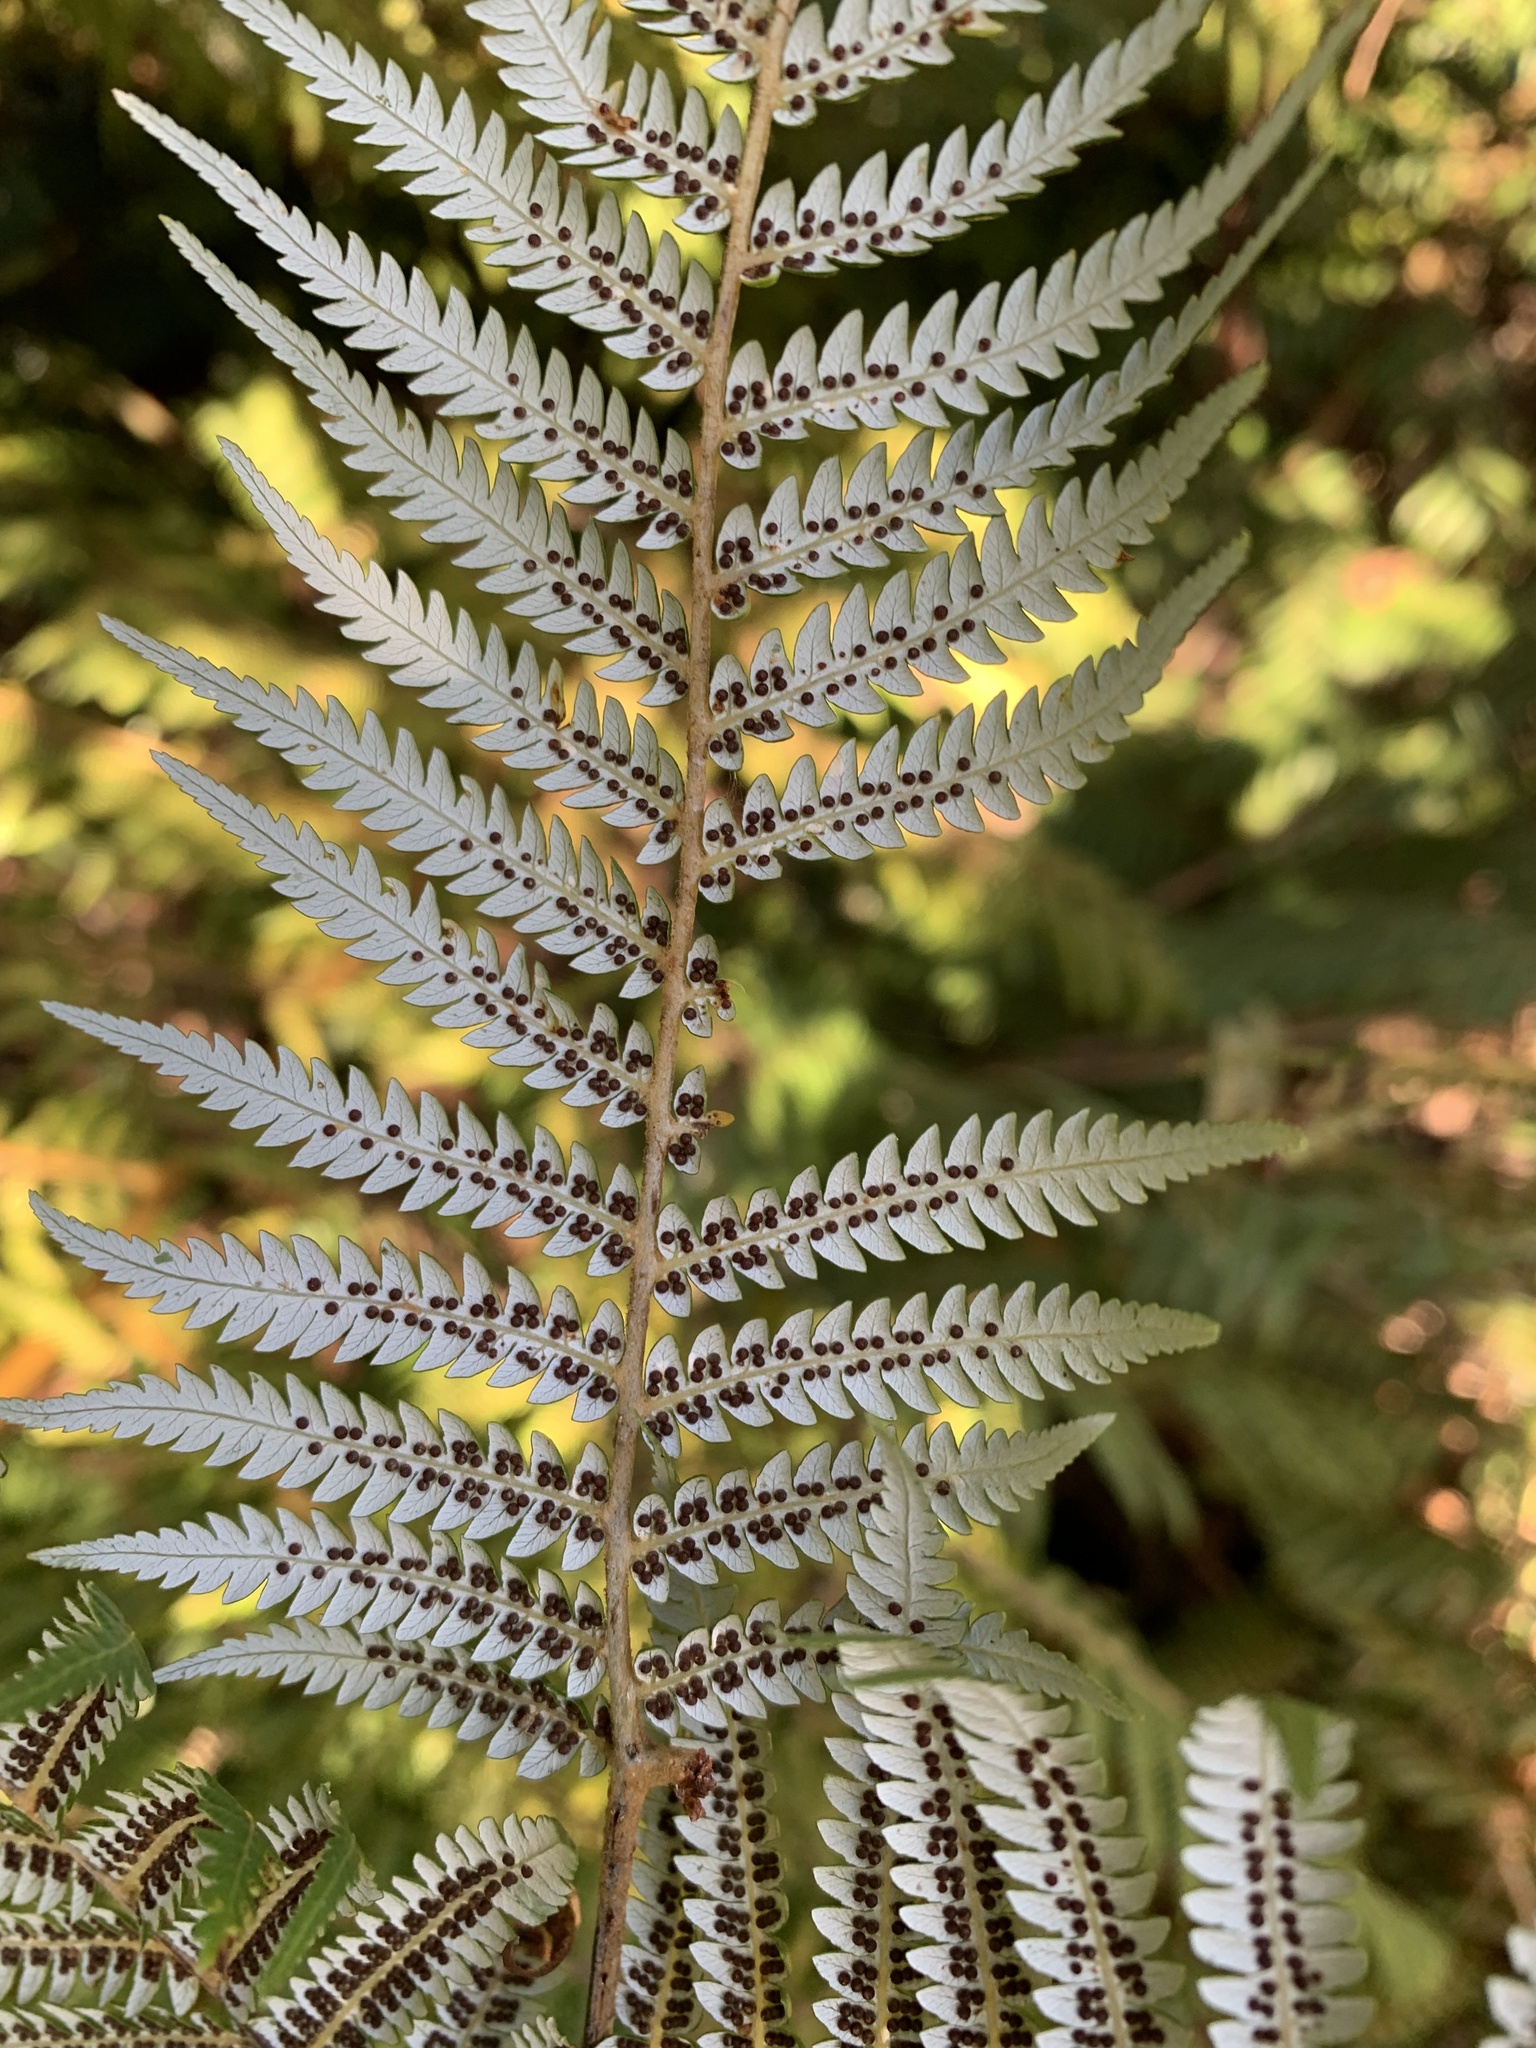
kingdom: Plantae
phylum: Tracheophyta
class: Polypodiopsida
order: Cyatheales
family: Cyatheaceae
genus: Alsophila
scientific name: Alsophila dealbata
